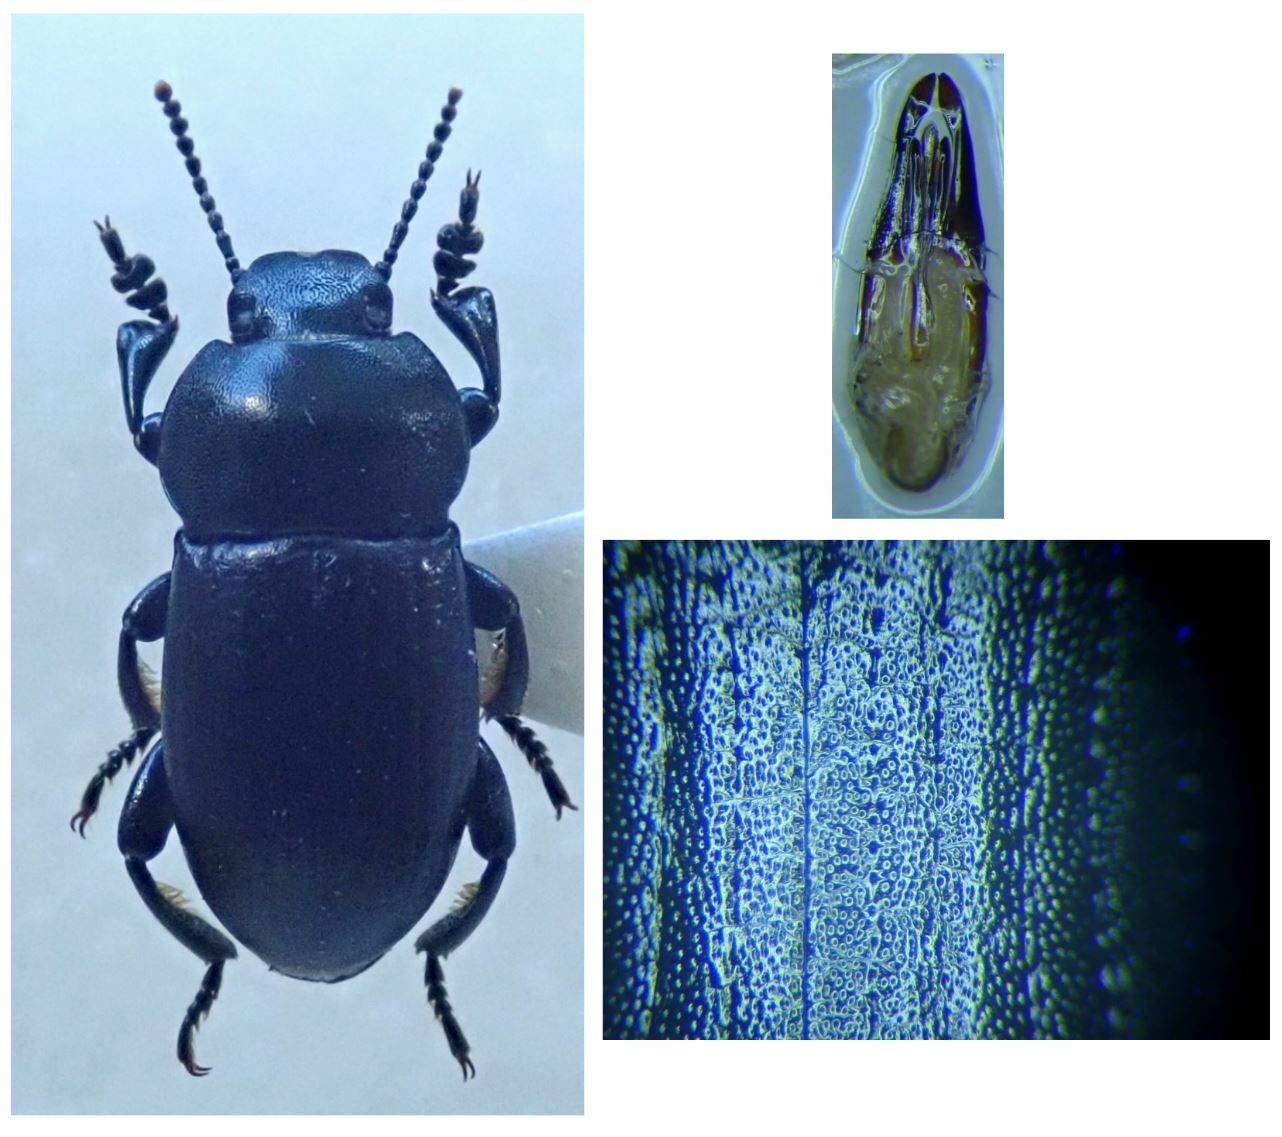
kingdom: Animalia
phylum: Arthropoda
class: Insecta
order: Coleoptera
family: Tenebrionidae
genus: Phylan
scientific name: Phylan abbreviatus
